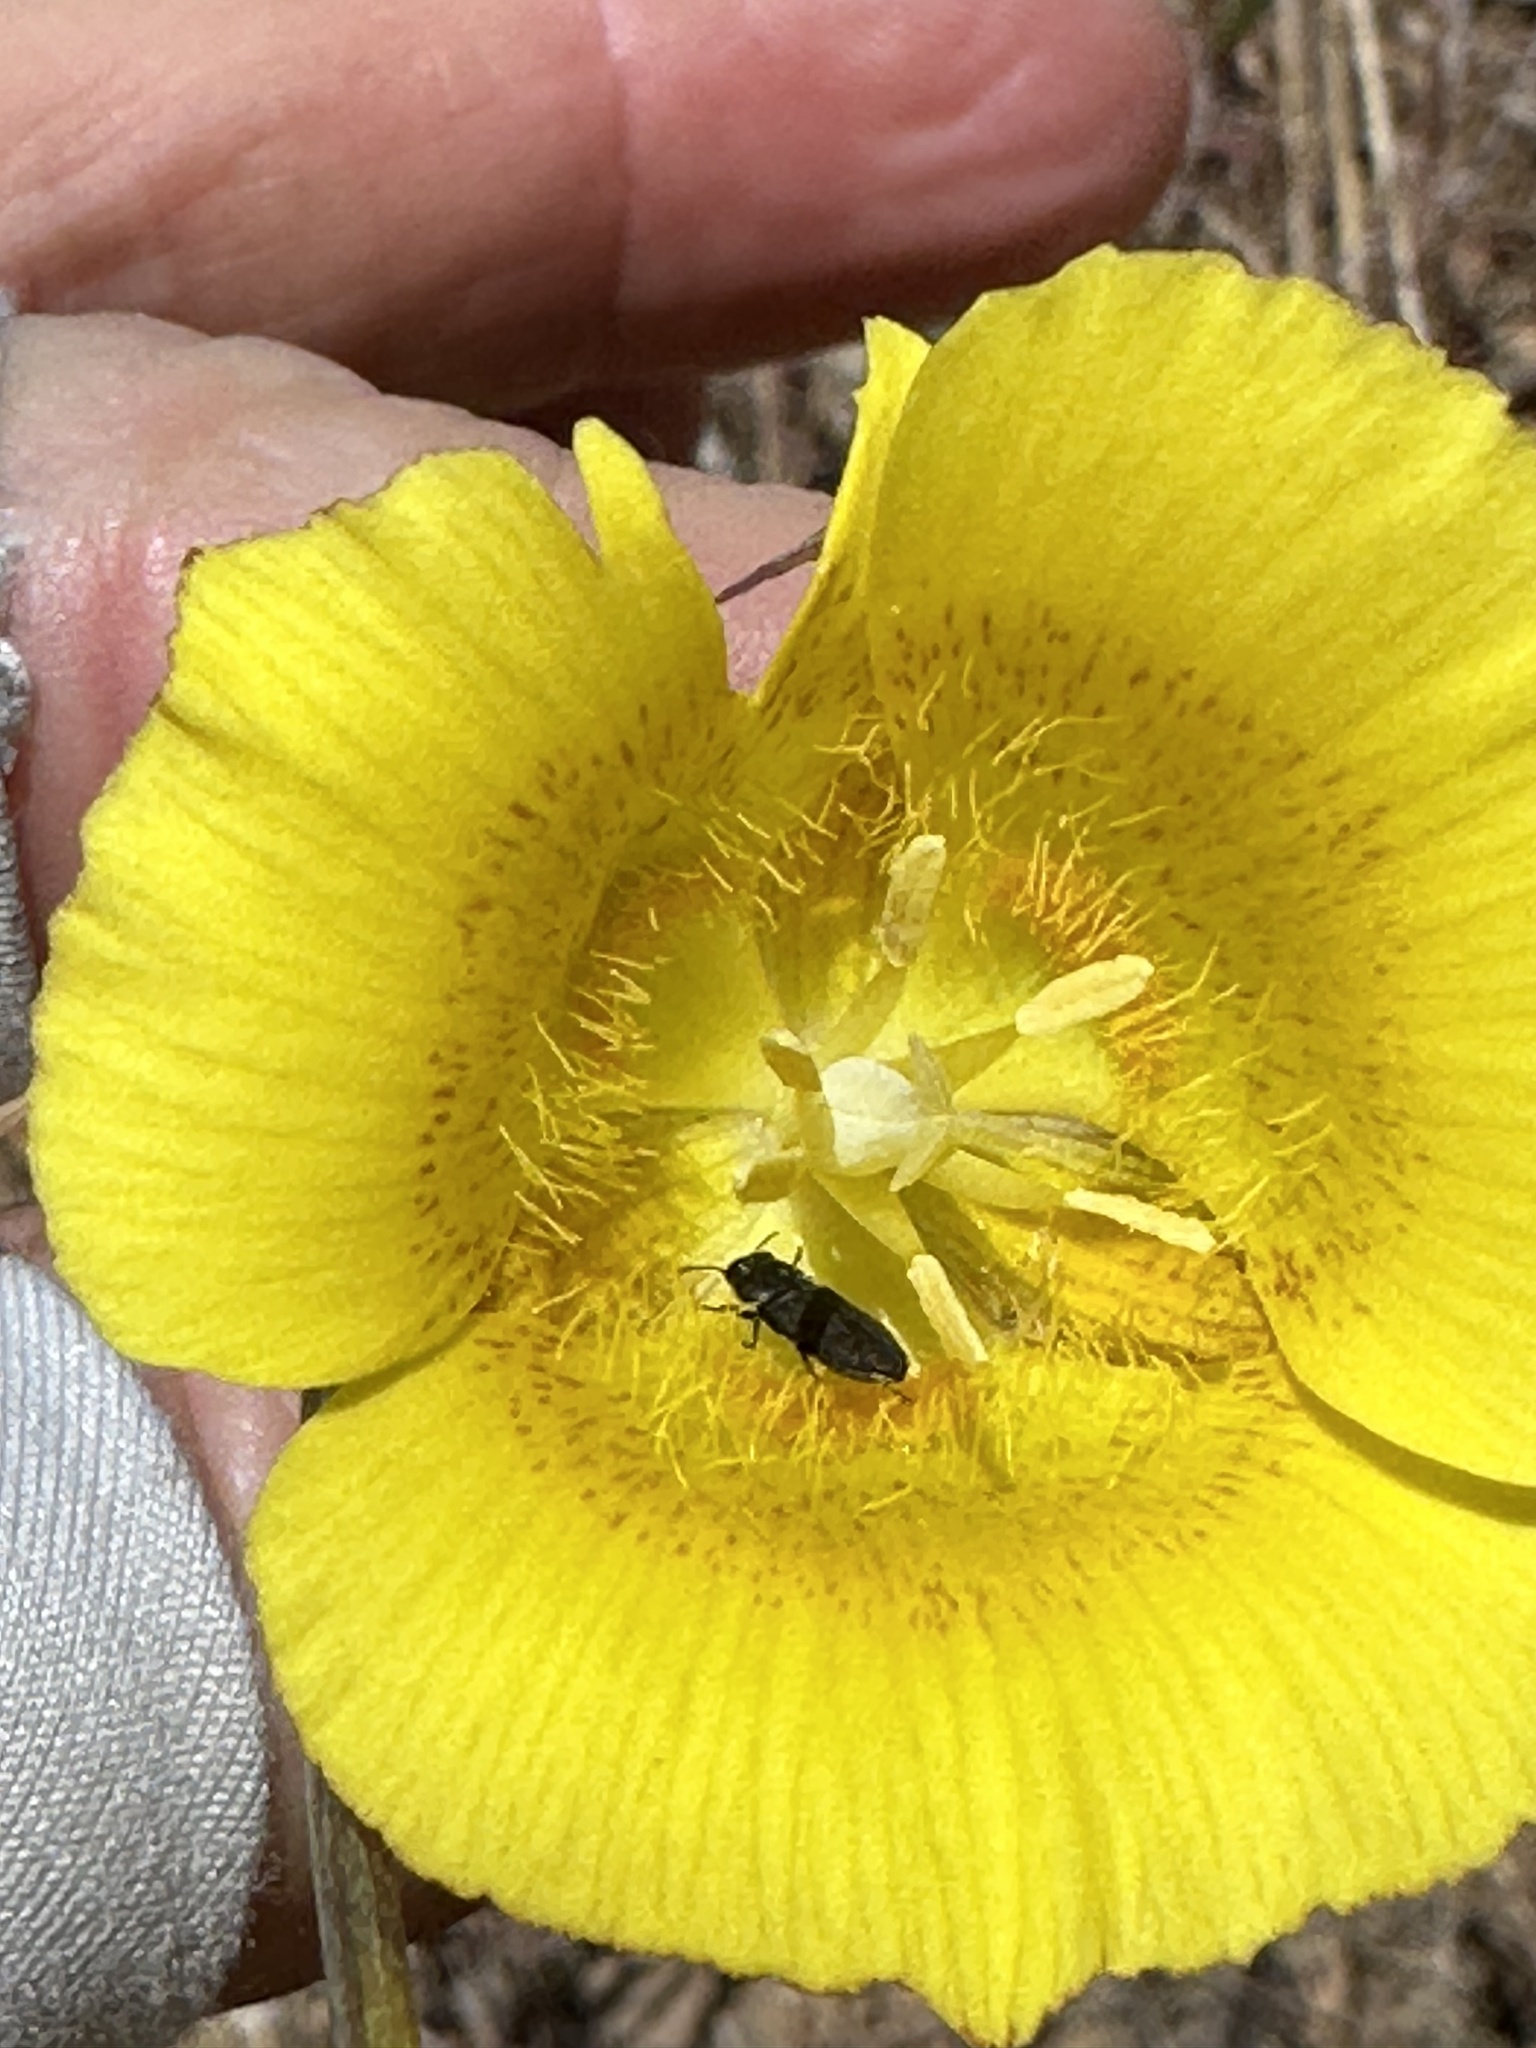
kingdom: Plantae
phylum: Tracheophyta
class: Liliopsida
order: Liliales
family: Liliaceae
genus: Calochortus
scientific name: Calochortus luteus
